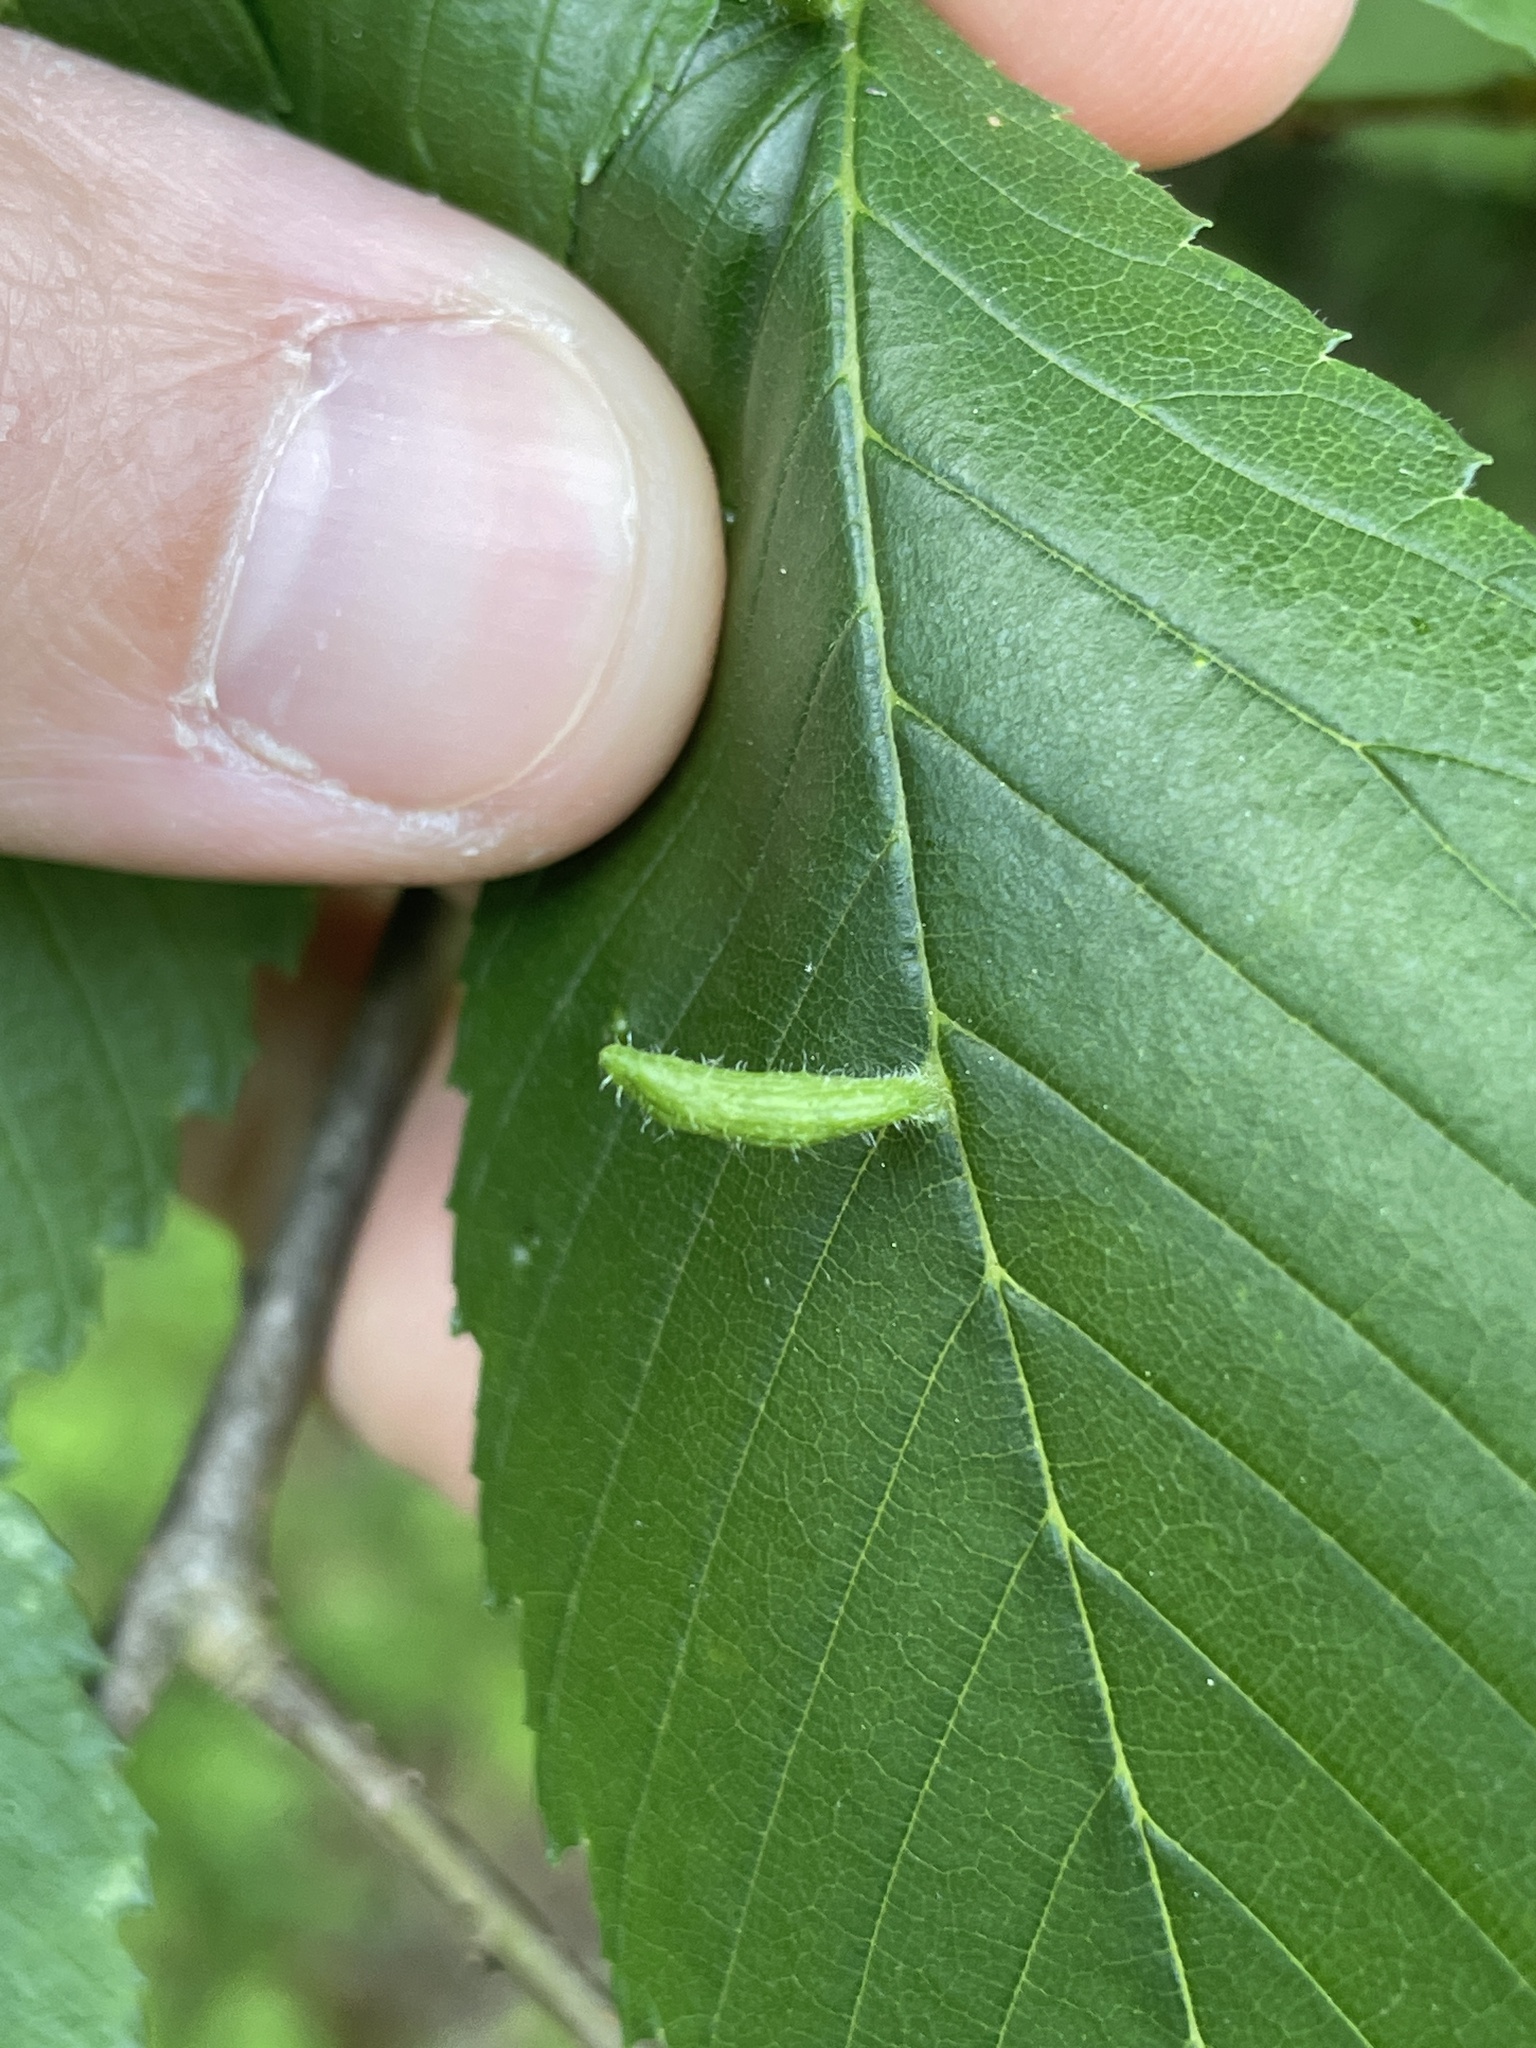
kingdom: Animalia
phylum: Arthropoda
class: Arachnida
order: Trombidiformes
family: Eriophyidae
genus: Aceria
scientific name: Aceria
